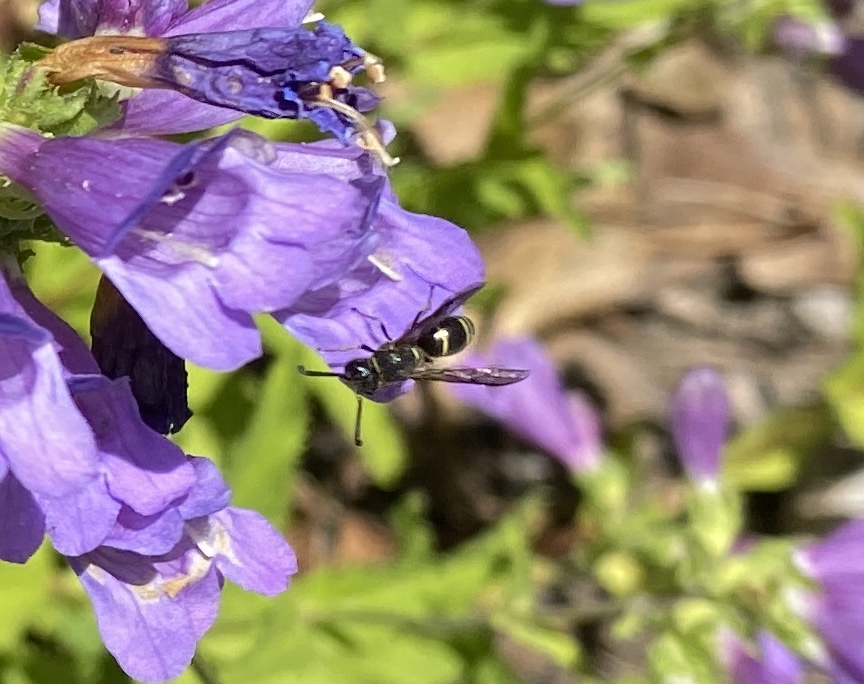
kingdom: Animalia
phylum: Arthropoda
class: Insecta
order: Hymenoptera
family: Eumenidae
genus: Euodynerus
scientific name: Euodynerus
